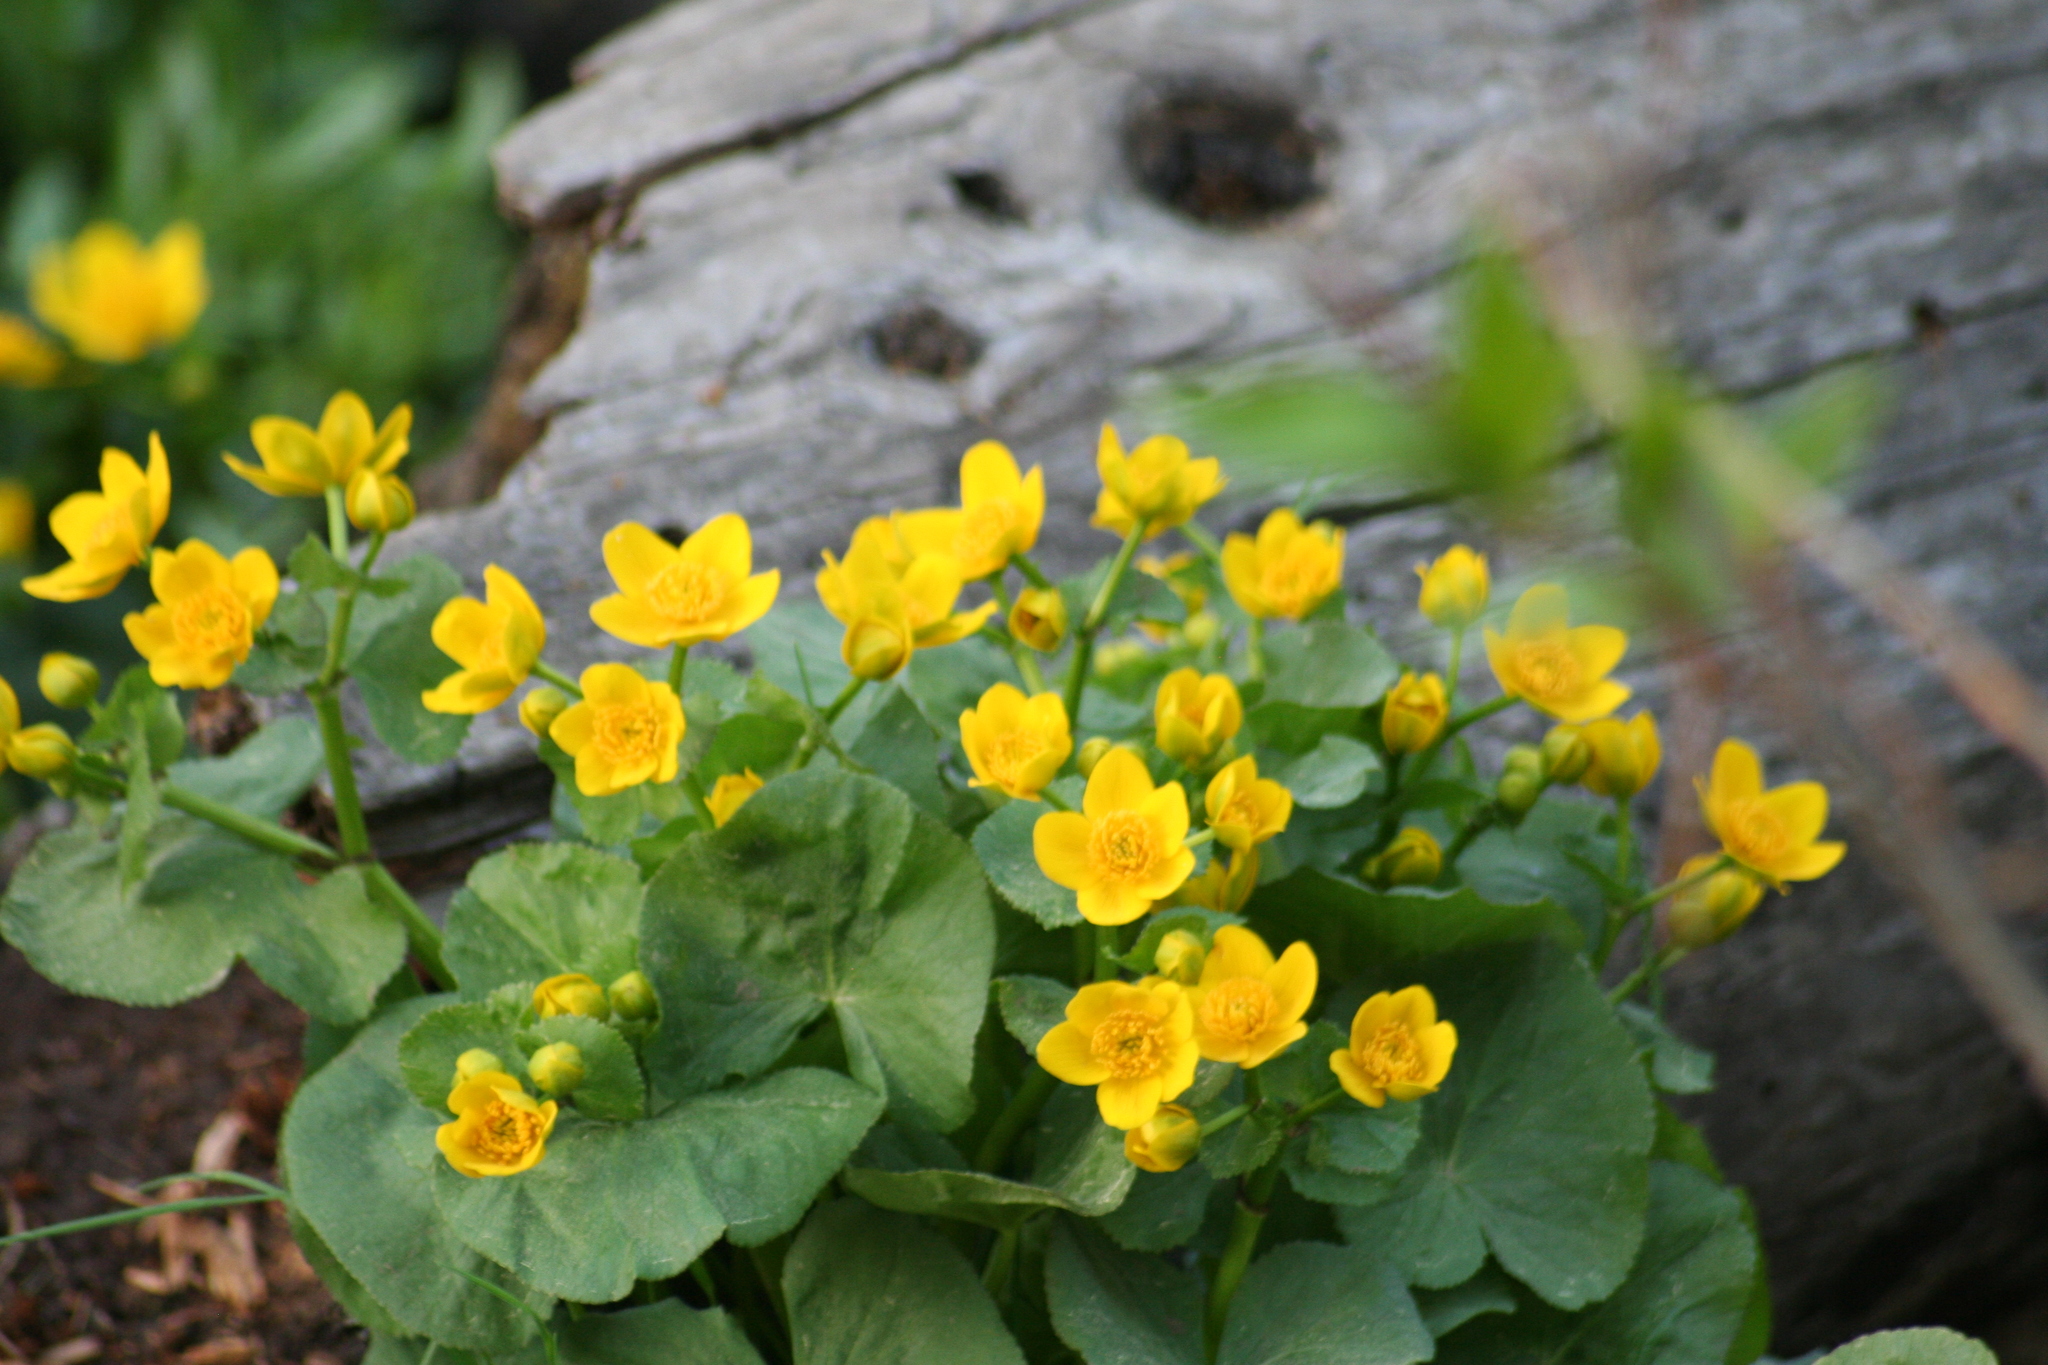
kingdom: Plantae
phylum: Tracheophyta
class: Magnoliopsida
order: Ranunculales
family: Ranunculaceae
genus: Caltha
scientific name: Caltha palustris
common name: Marsh marigold
